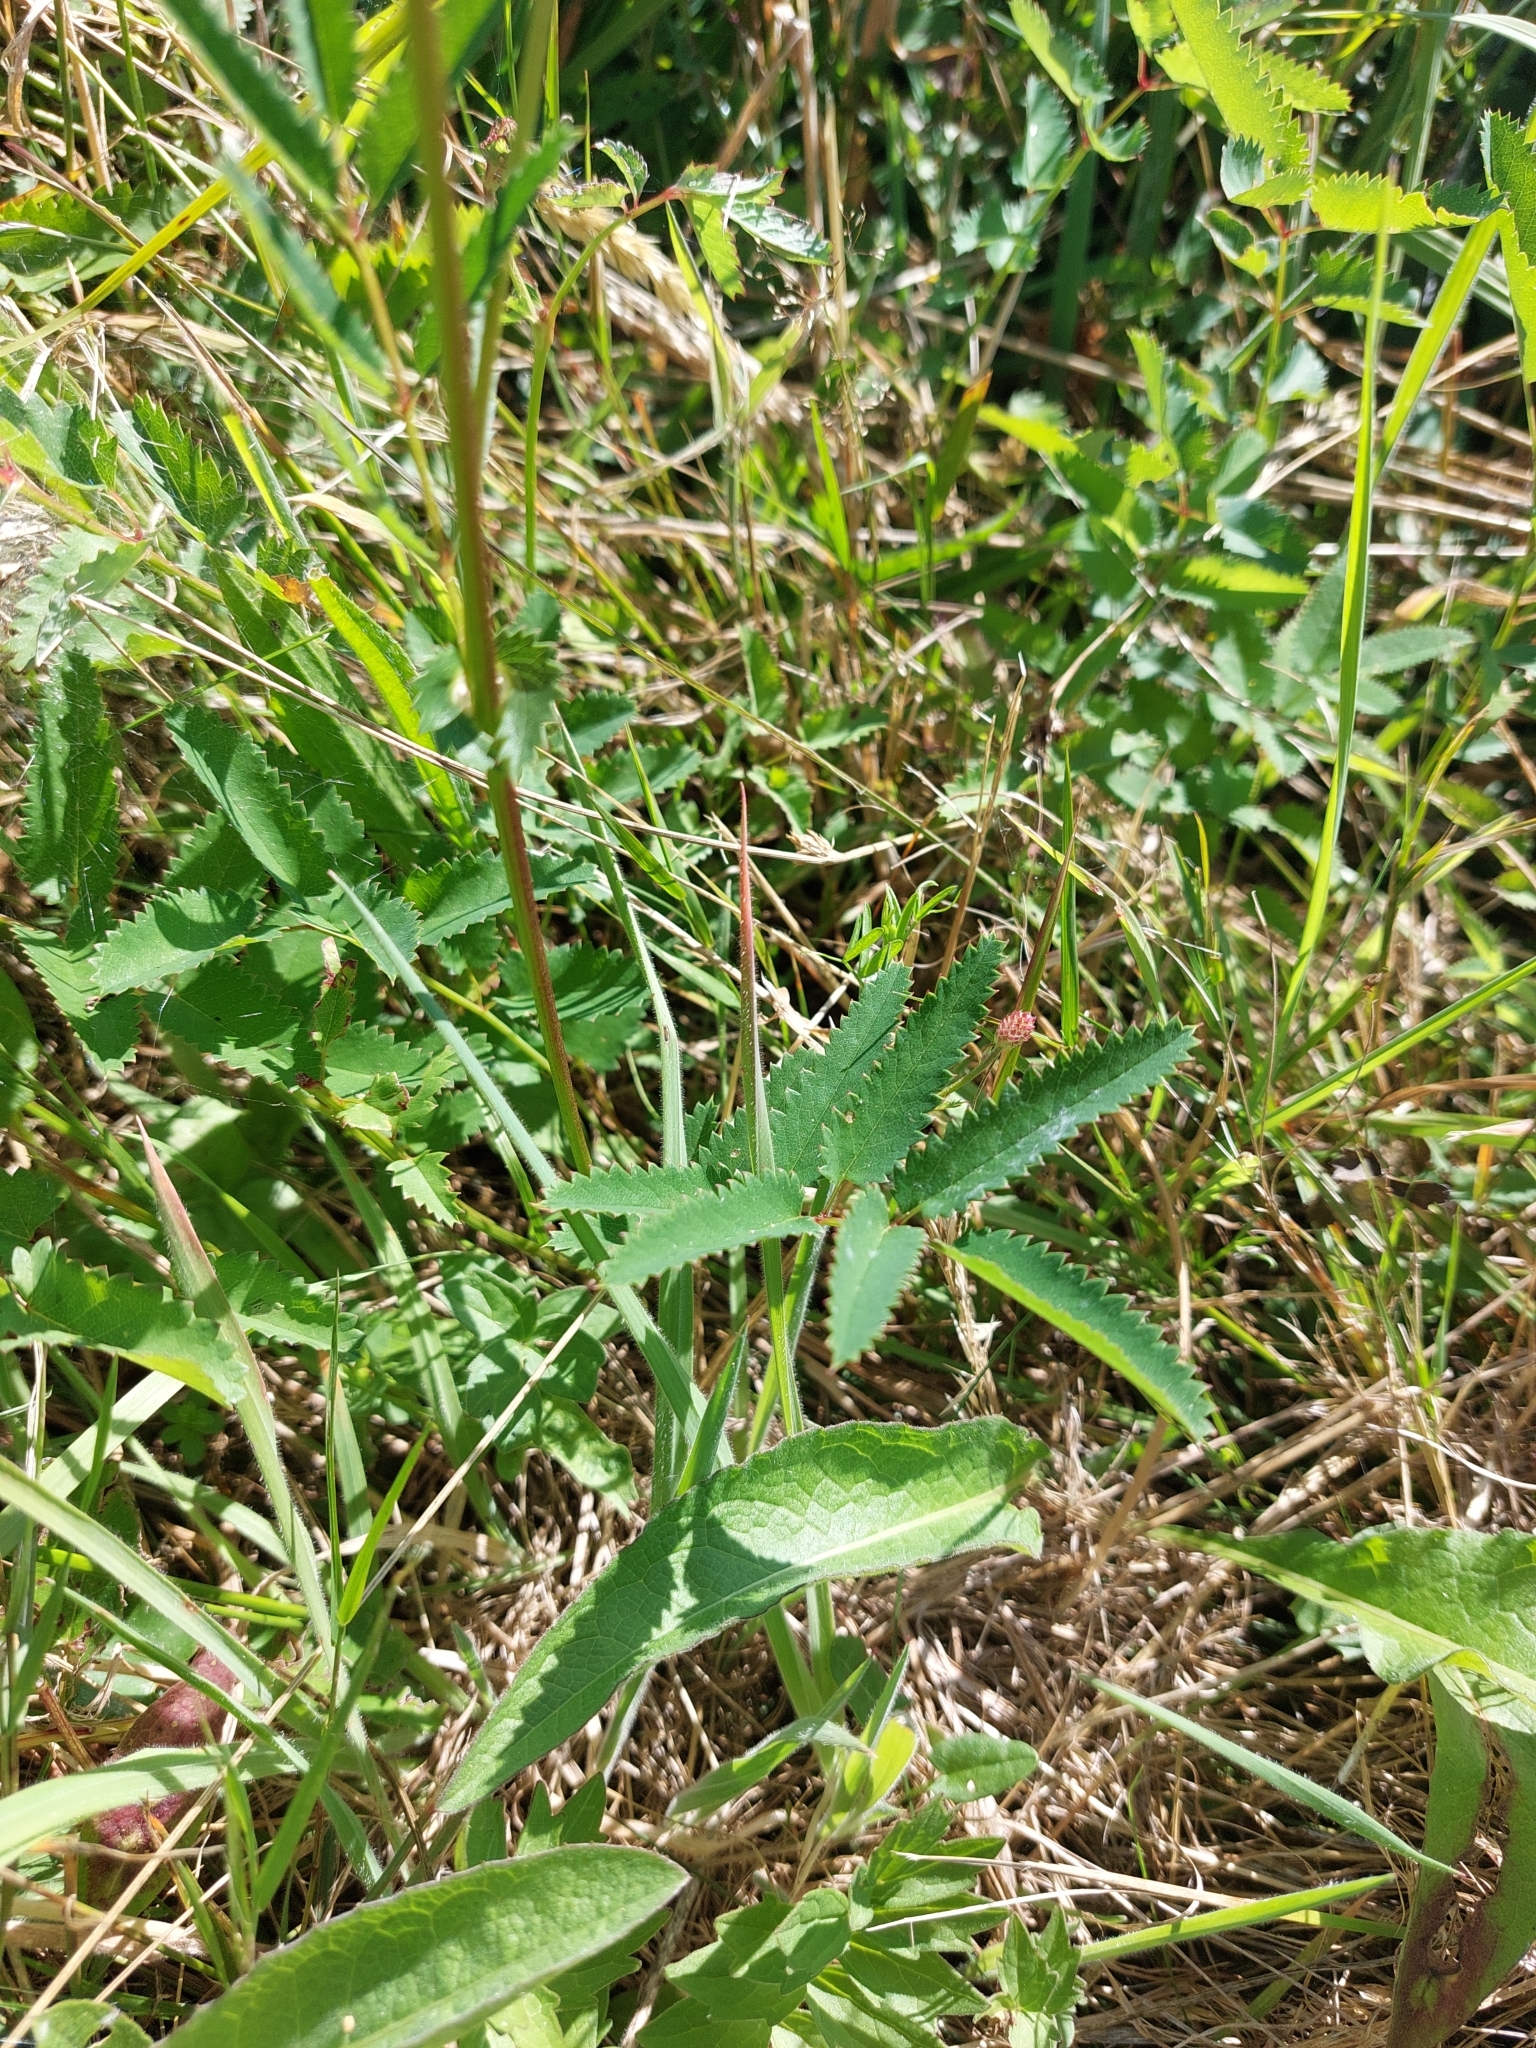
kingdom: Plantae
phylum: Tracheophyta
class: Magnoliopsida
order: Rosales
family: Rosaceae
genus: Sanguisorba
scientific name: Sanguisorba officinalis
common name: Great burnet
